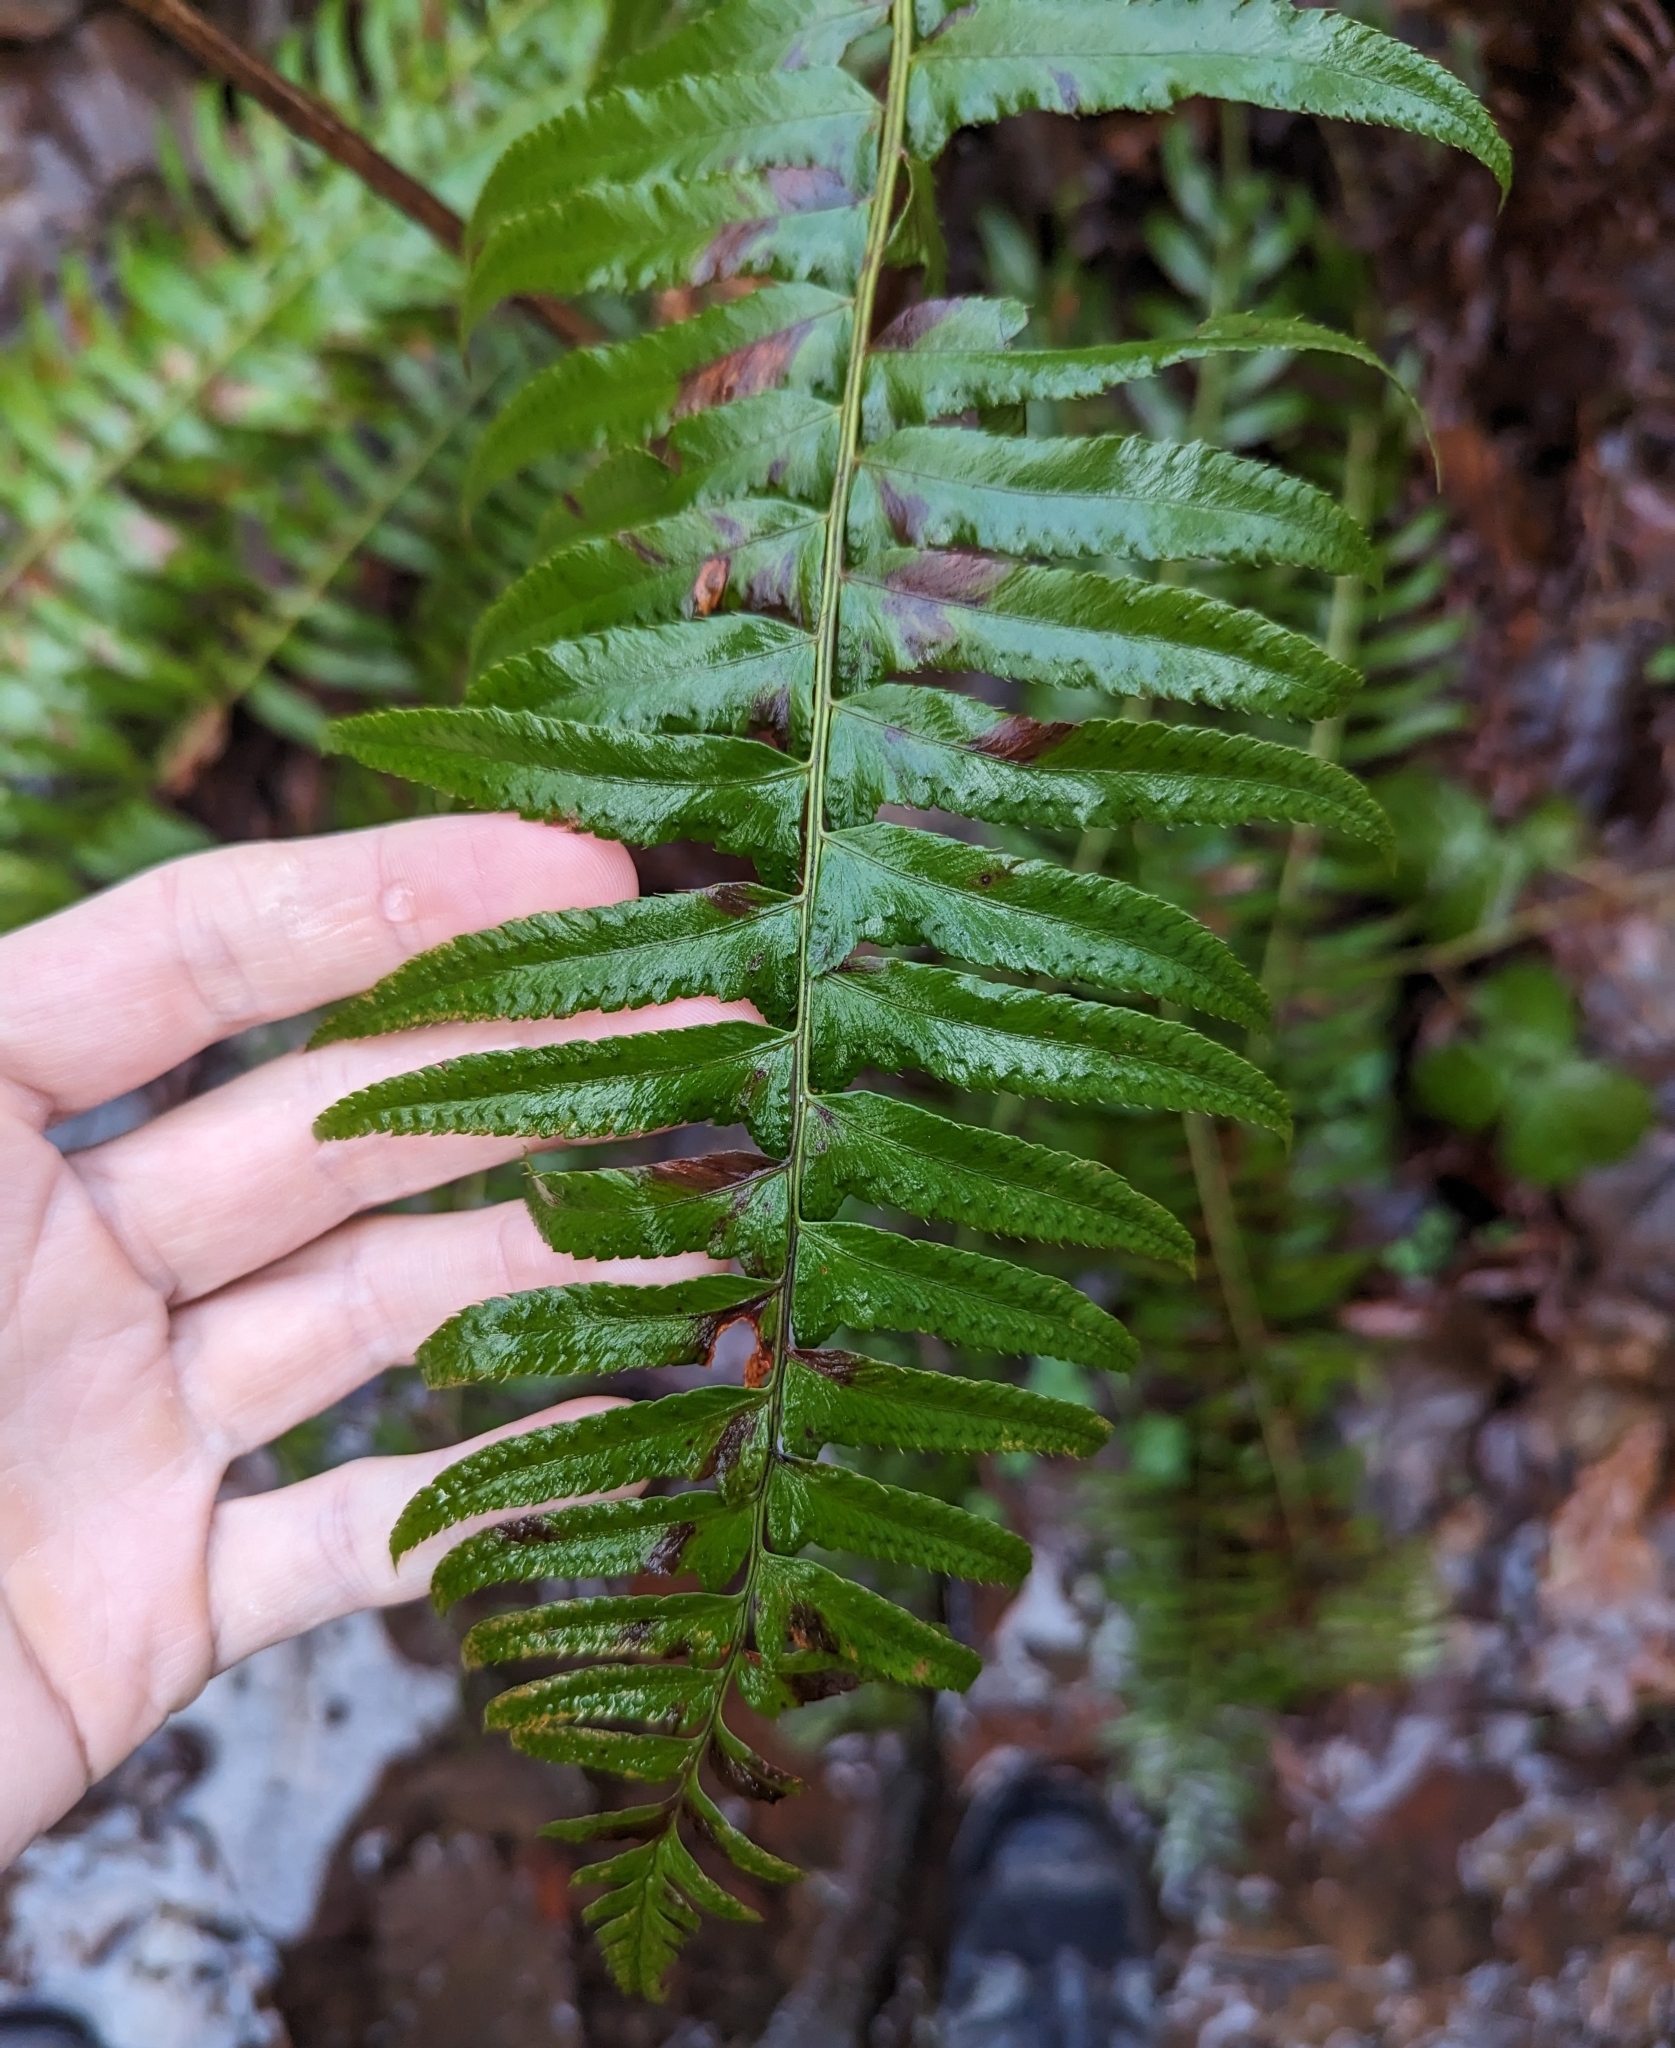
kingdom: Plantae
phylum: Tracheophyta
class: Polypodiopsida
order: Polypodiales
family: Dryopteridaceae
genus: Polystichum
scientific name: Polystichum munitum
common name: Western sword-fern
